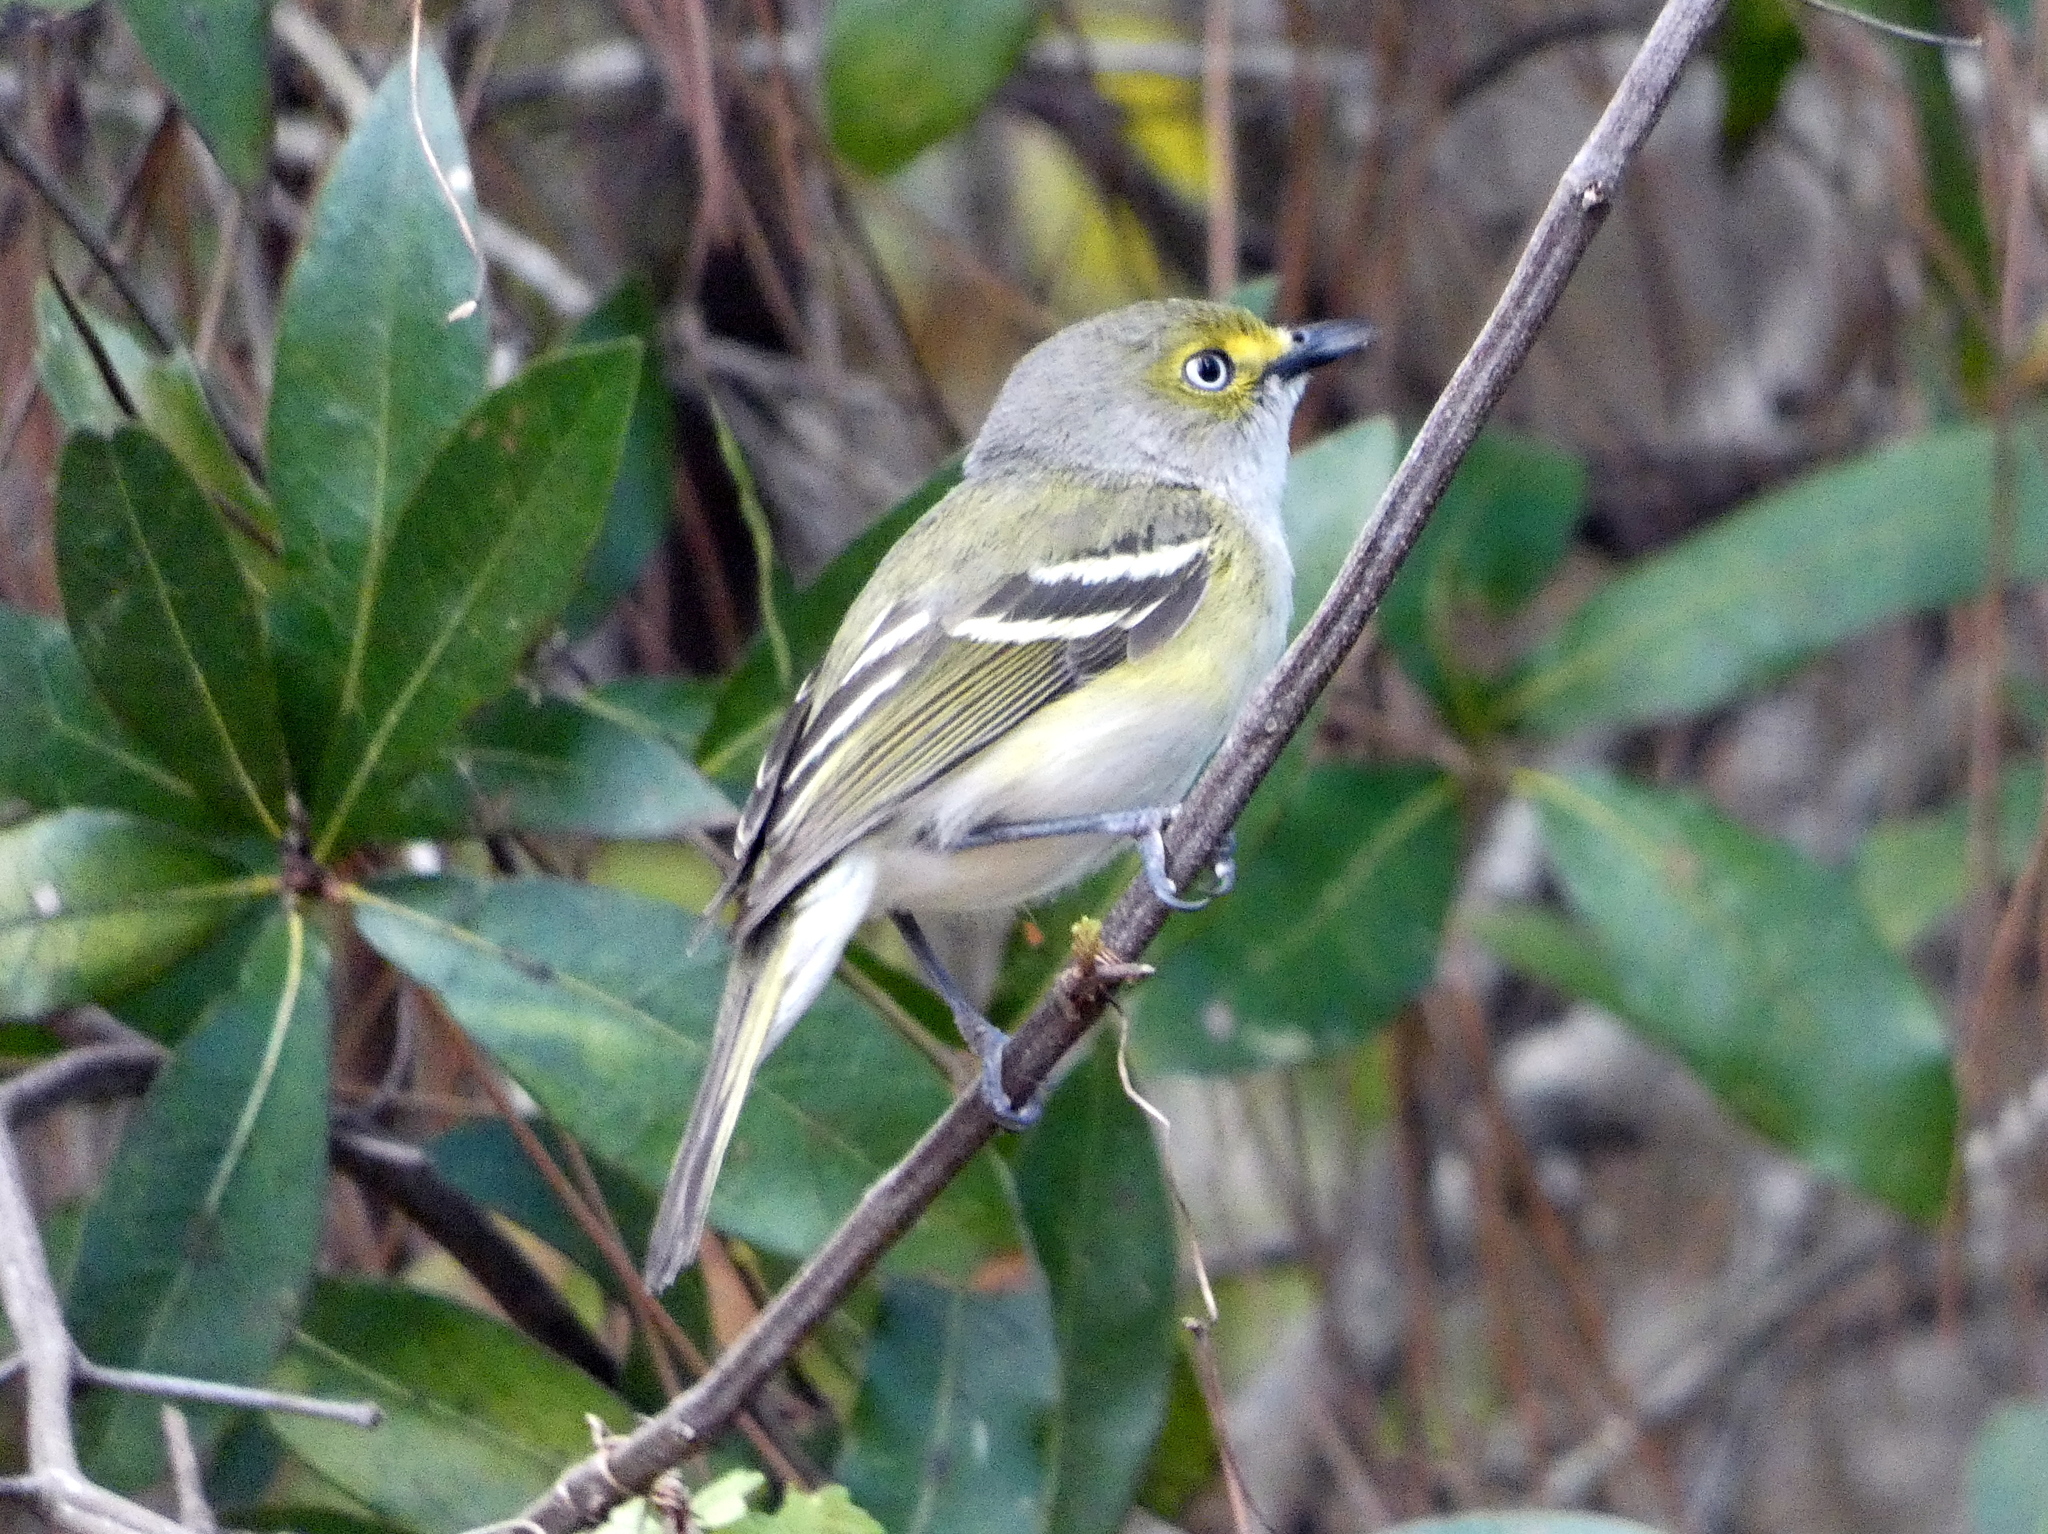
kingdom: Animalia
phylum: Chordata
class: Aves
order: Passeriformes
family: Vireonidae
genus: Vireo
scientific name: Vireo griseus
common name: White-eyed vireo
